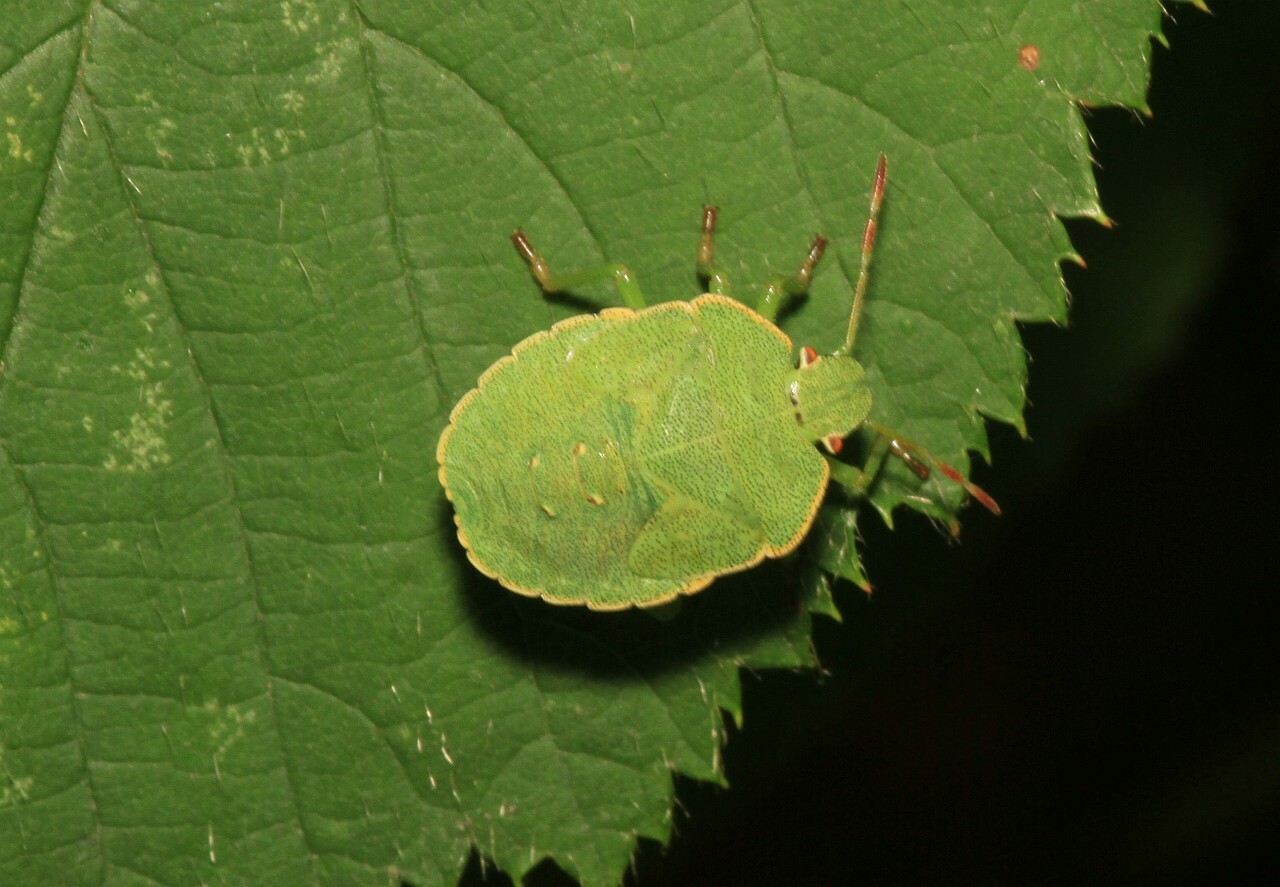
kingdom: Animalia
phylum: Arthropoda
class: Insecta
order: Hemiptera
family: Pentatomidae
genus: Palomena
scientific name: Palomena prasina
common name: Green shieldbug
